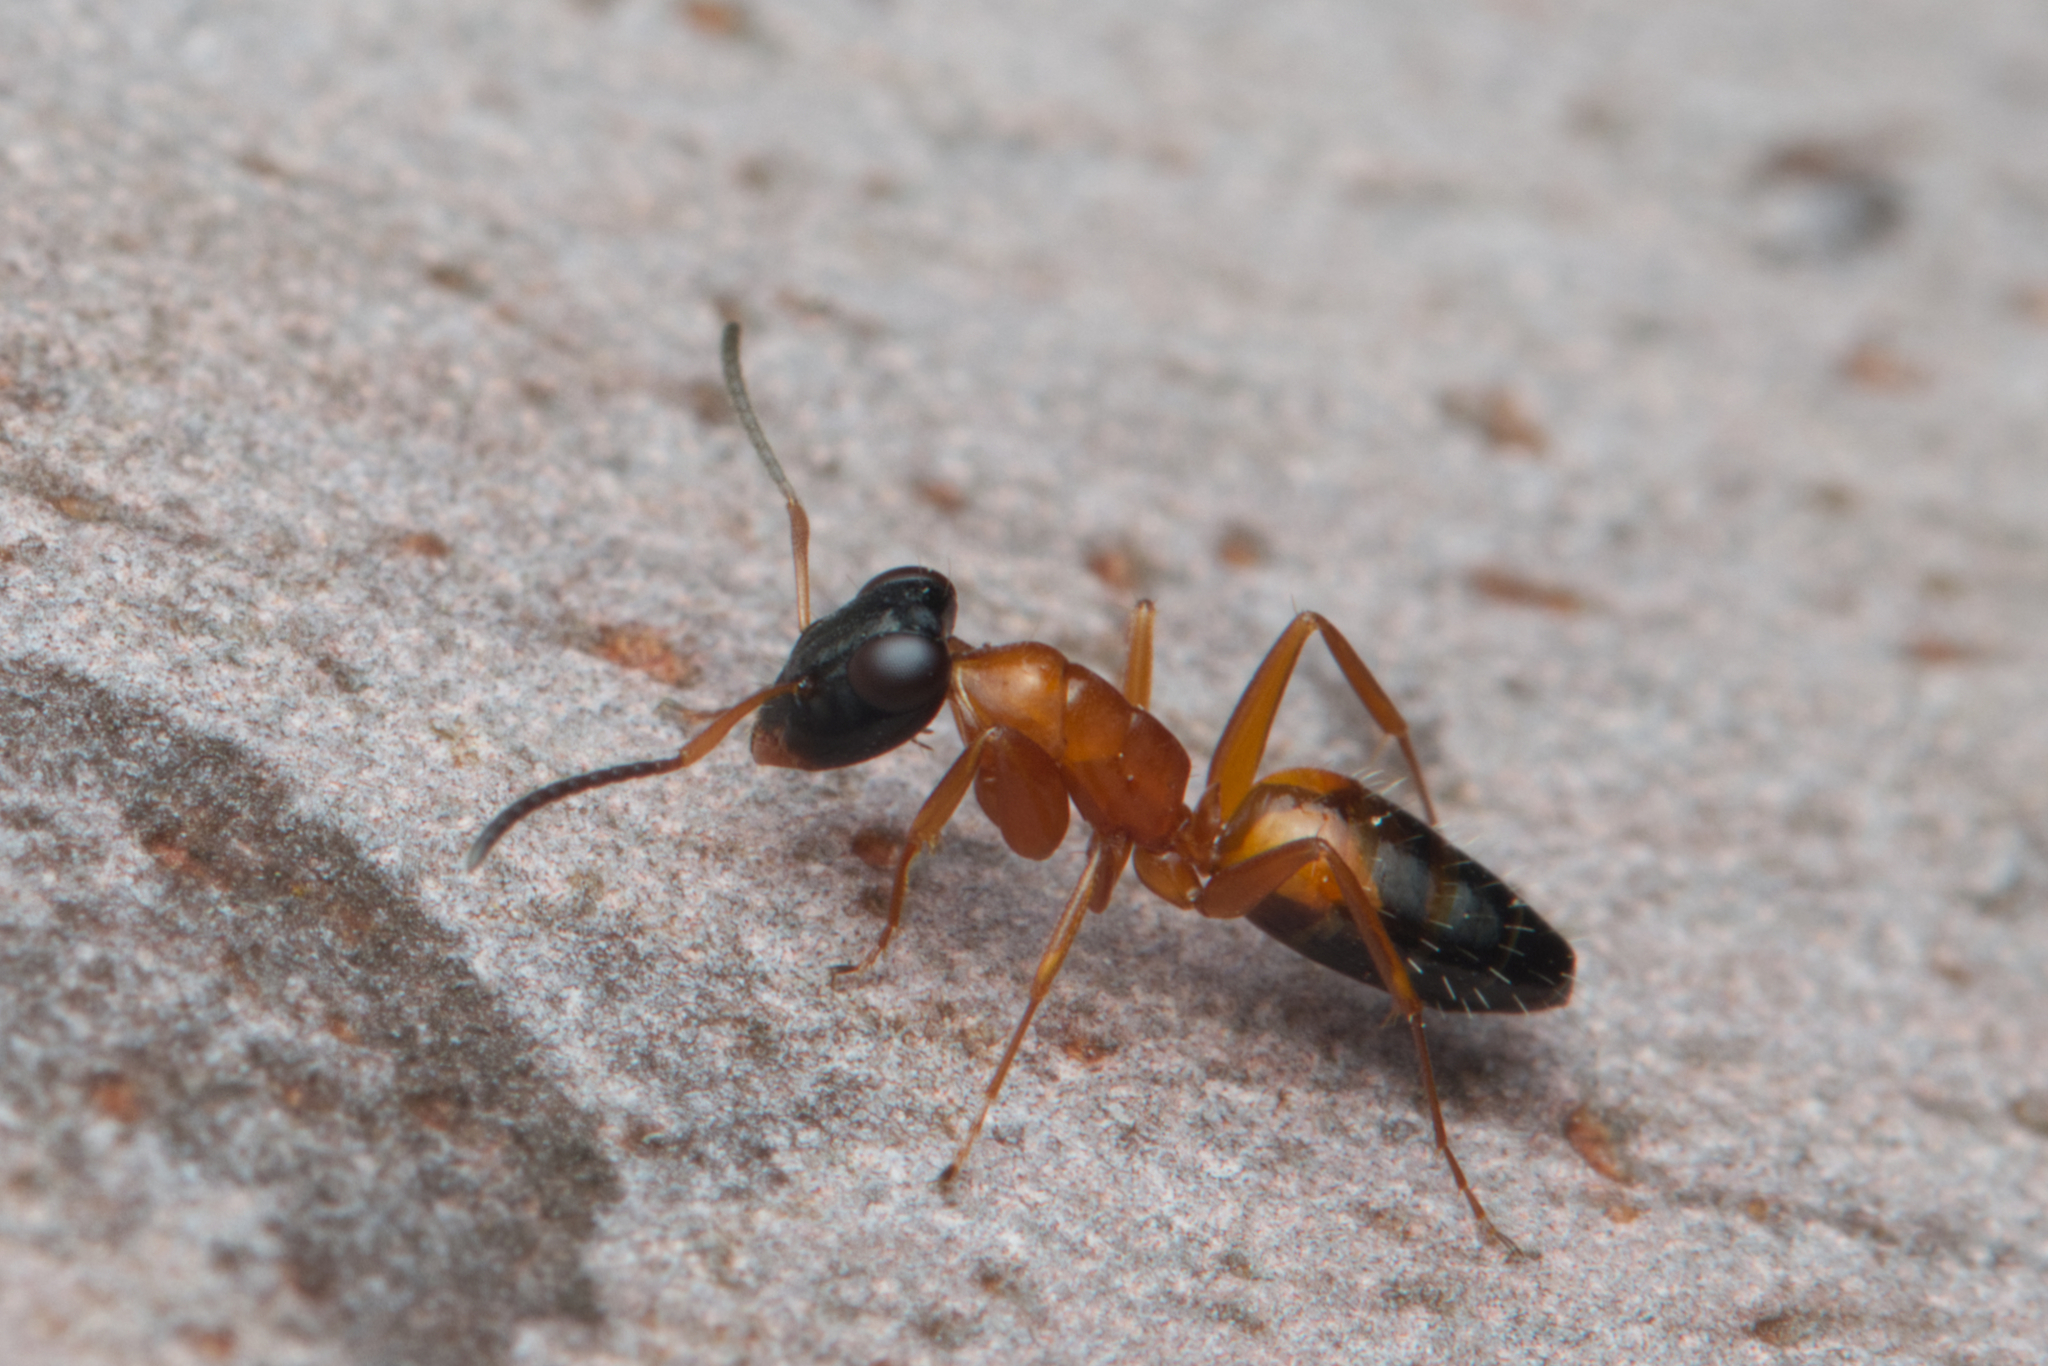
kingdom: Animalia
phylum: Arthropoda
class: Insecta
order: Hymenoptera
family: Formicidae
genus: Opisthopsis
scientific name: Opisthopsis rufithorax
